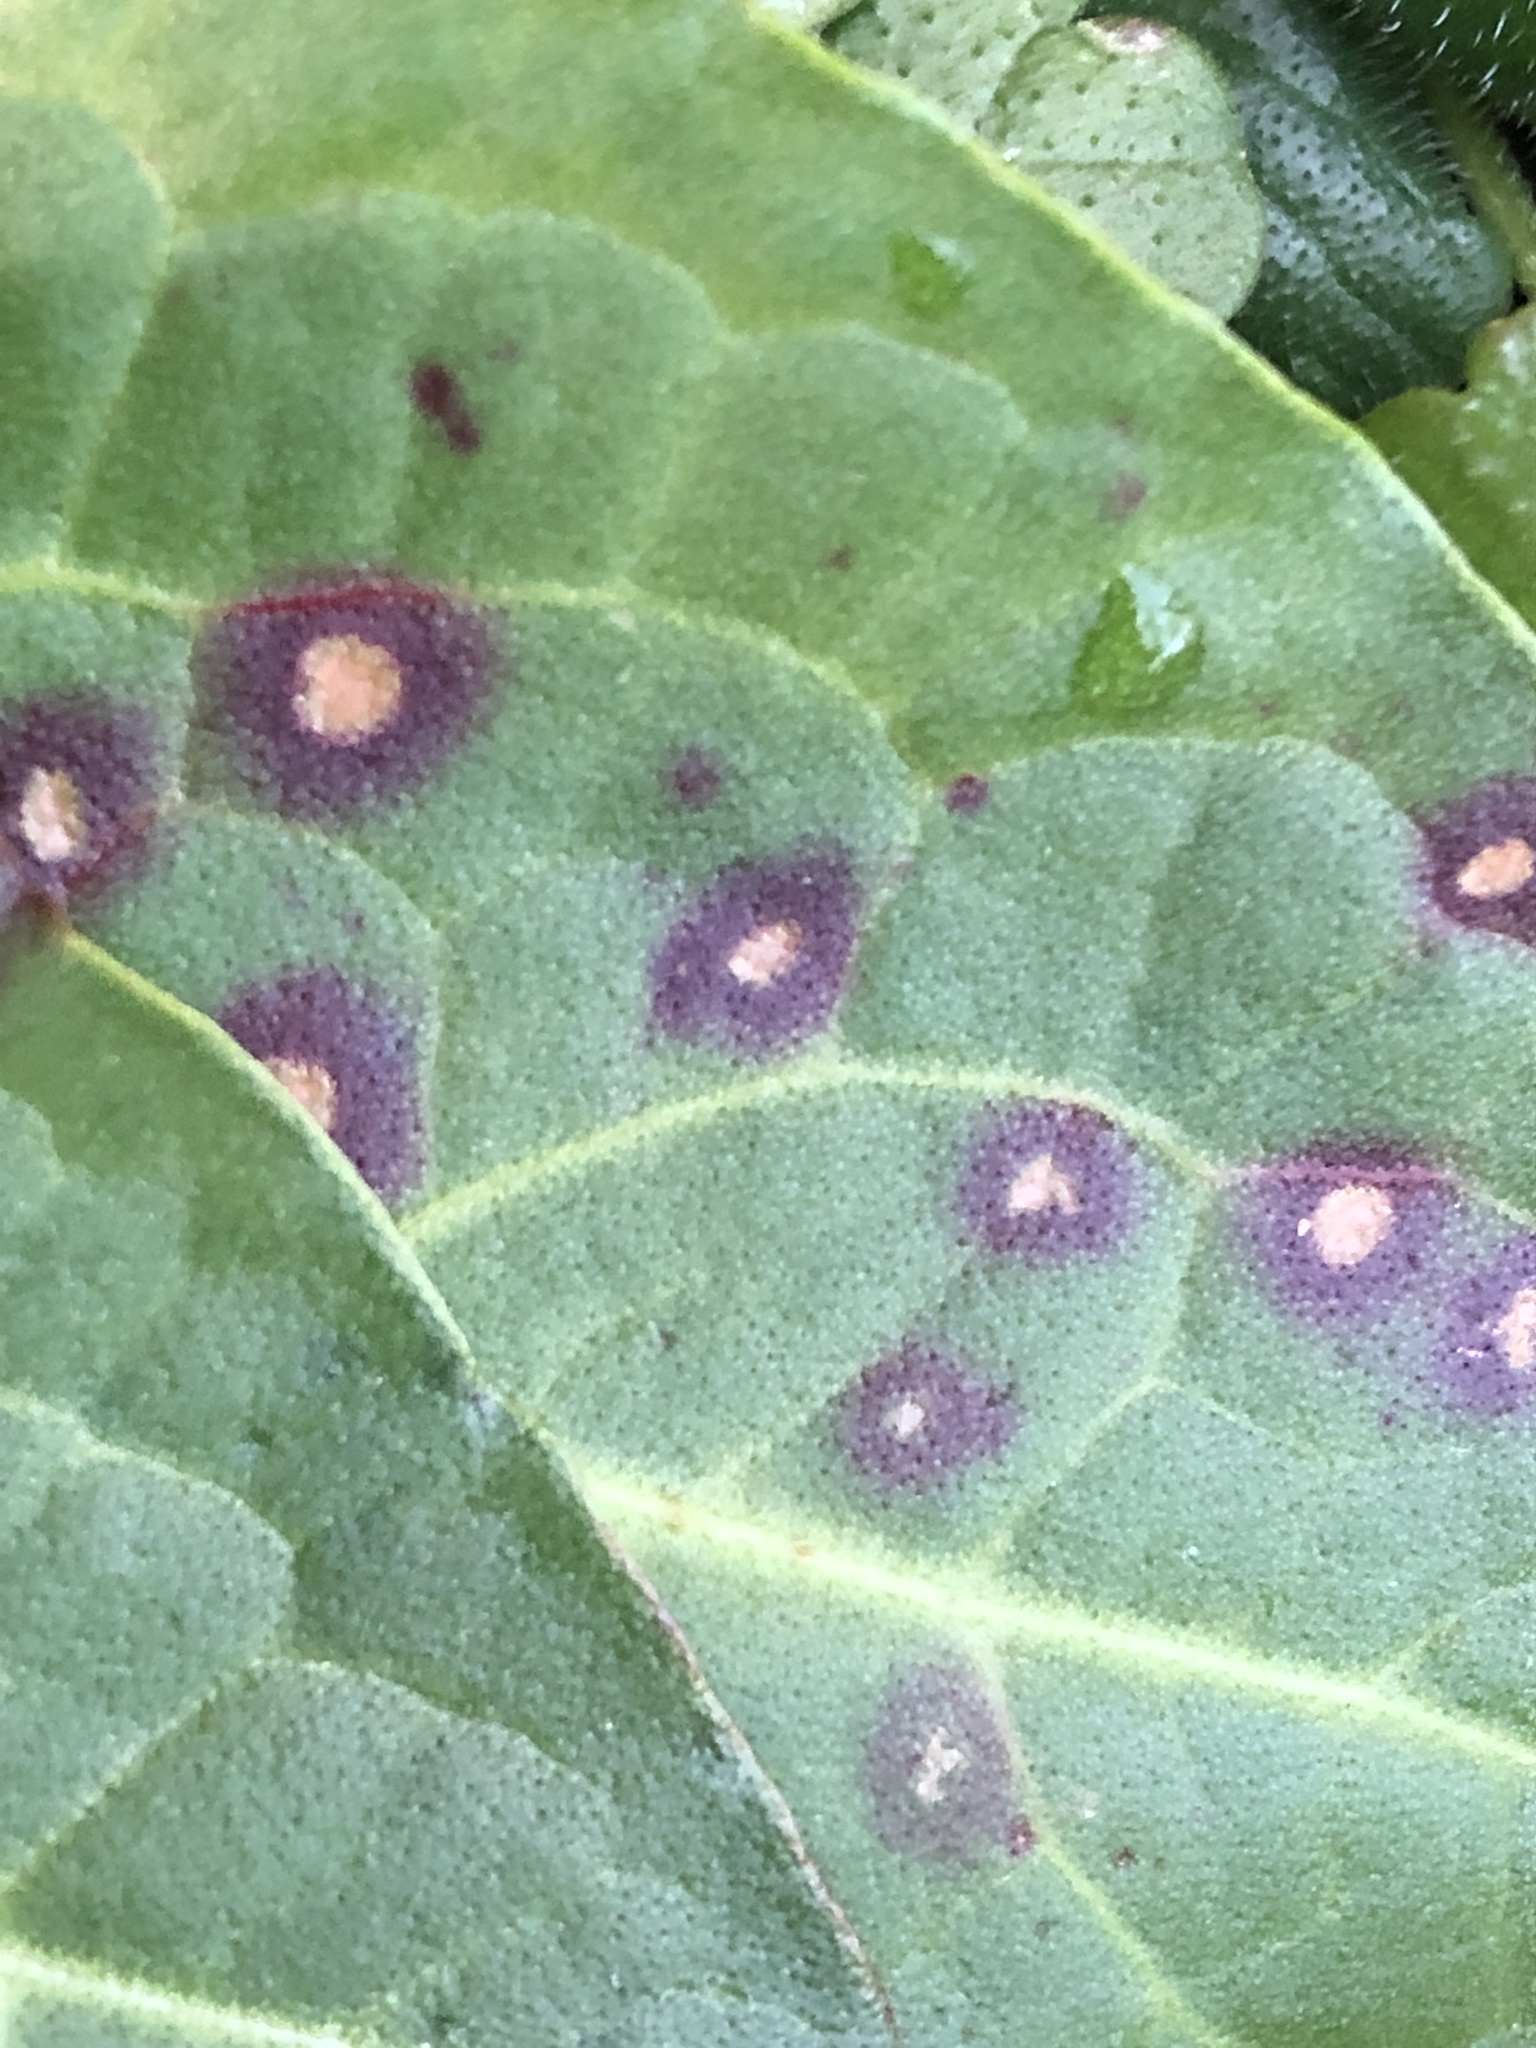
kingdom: Fungi
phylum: Ascomycota
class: Dothideomycetes
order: Mycosphaerellales
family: Mycosphaerellaceae
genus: Ramularia
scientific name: Ramularia rubella
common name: Red dock spot
